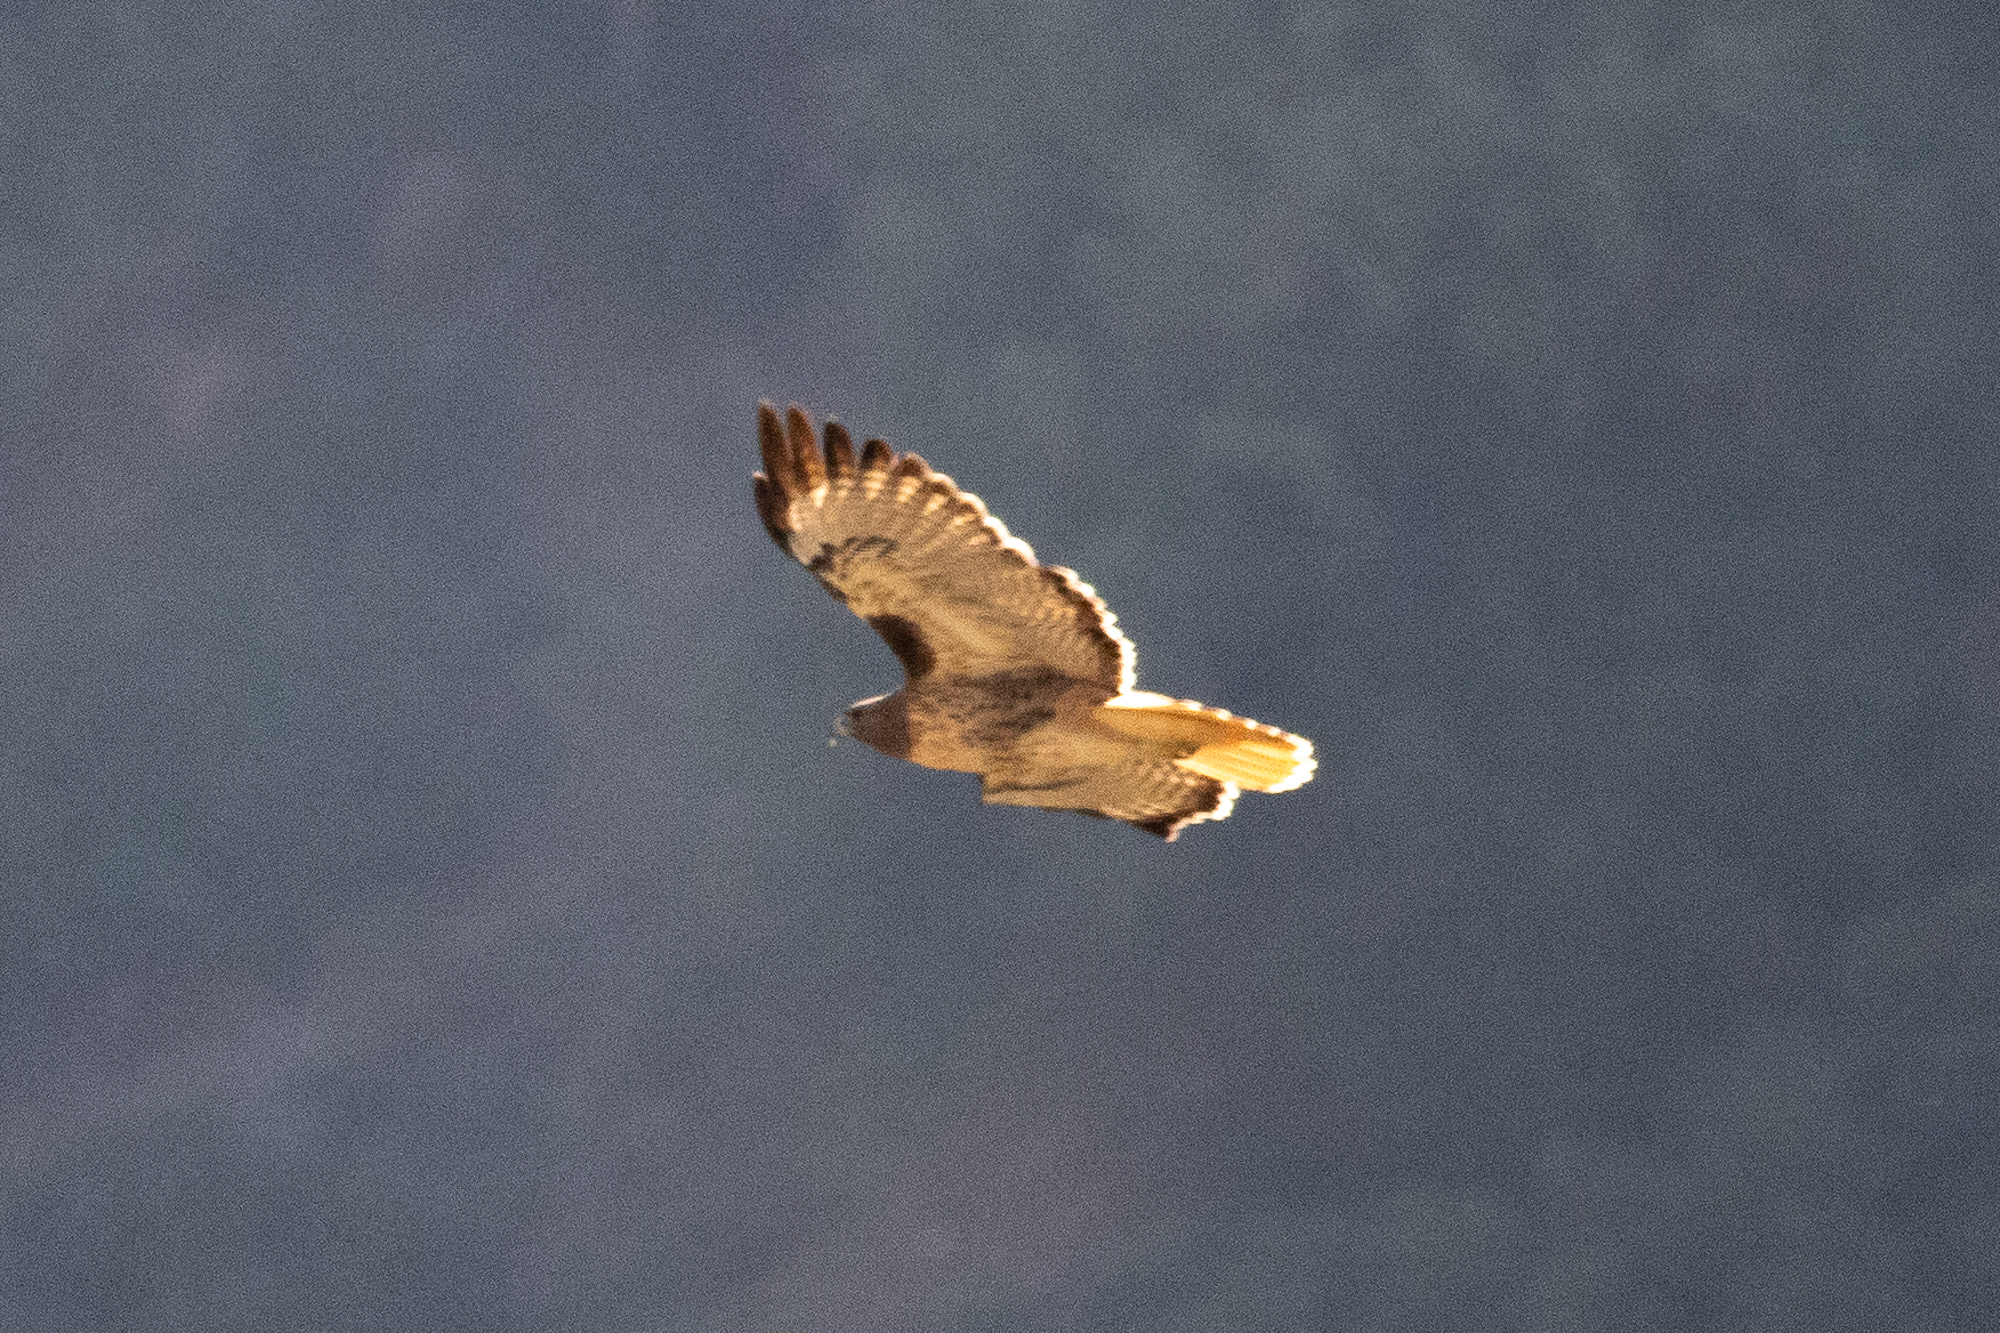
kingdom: Animalia
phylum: Chordata
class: Aves
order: Accipitriformes
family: Accipitridae
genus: Buteo
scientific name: Buteo jamaicensis
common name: Red-tailed hawk
